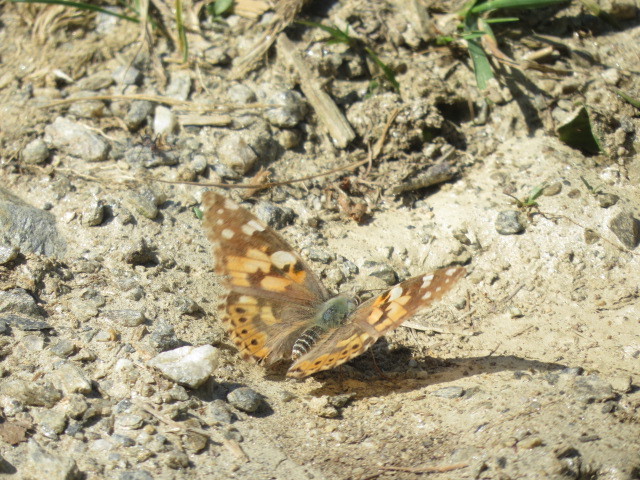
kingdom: Animalia
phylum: Arthropoda
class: Insecta
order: Lepidoptera
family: Nymphalidae
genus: Vanessa
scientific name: Vanessa cardui
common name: Painted lady
